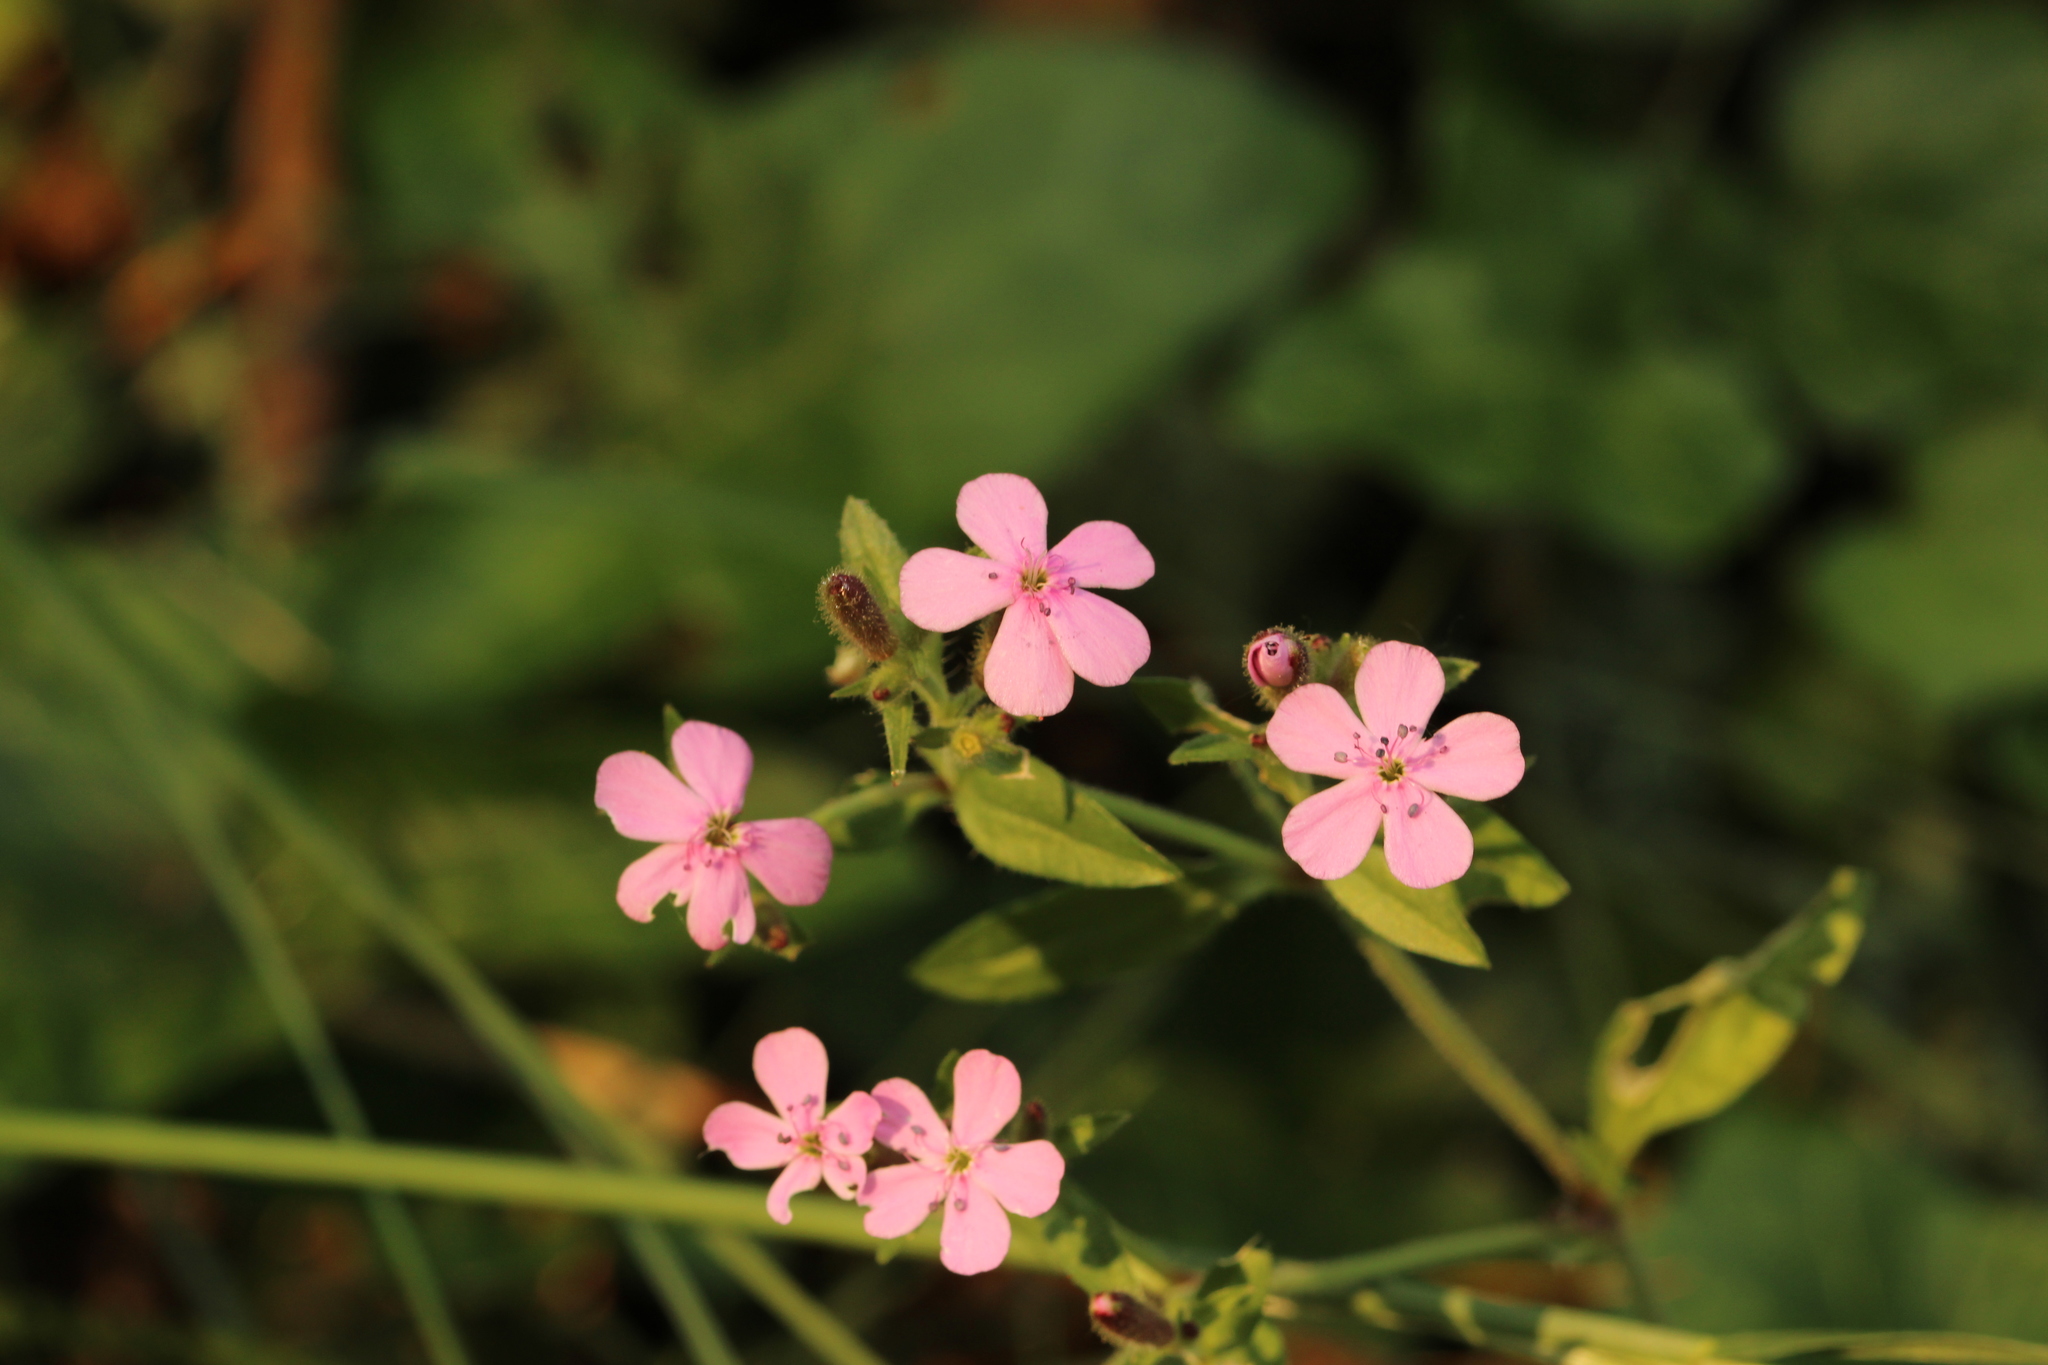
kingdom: Plantae
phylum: Tracheophyta
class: Magnoliopsida
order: Caryophyllales
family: Caryophyllaceae
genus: Saponaria
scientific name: Saponaria ocymoides
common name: Rock soapwort
